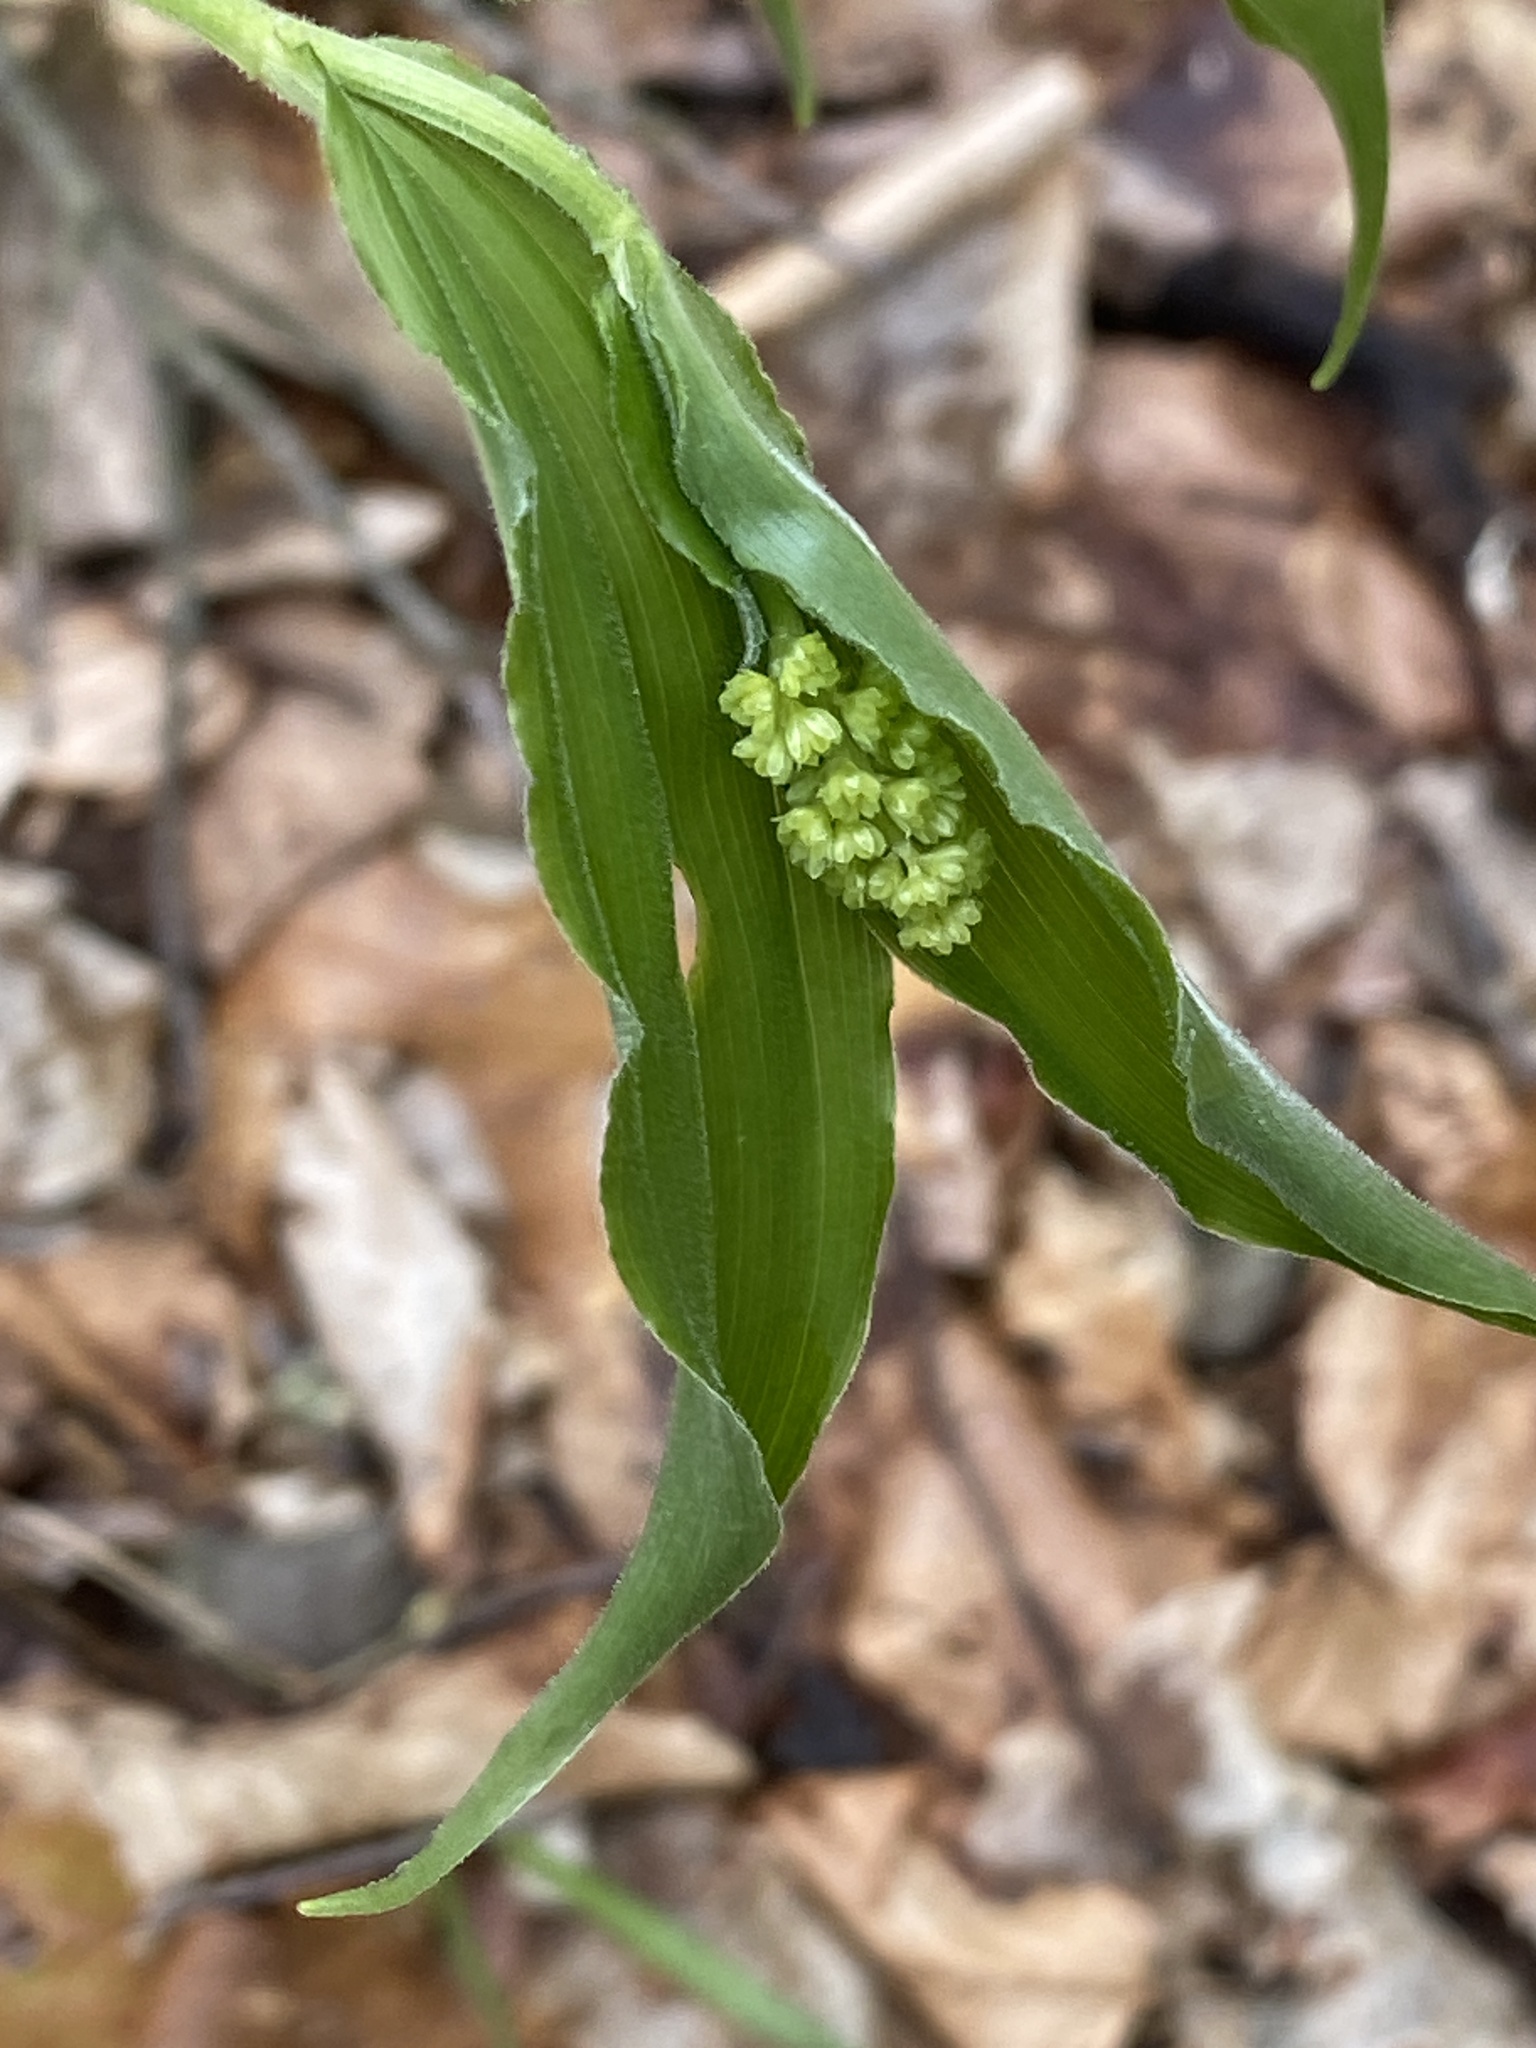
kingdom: Plantae
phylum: Tracheophyta
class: Liliopsida
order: Asparagales
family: Asparagaceae
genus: Maianthemum
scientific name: Maianthemum racemosum
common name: False spikenard
